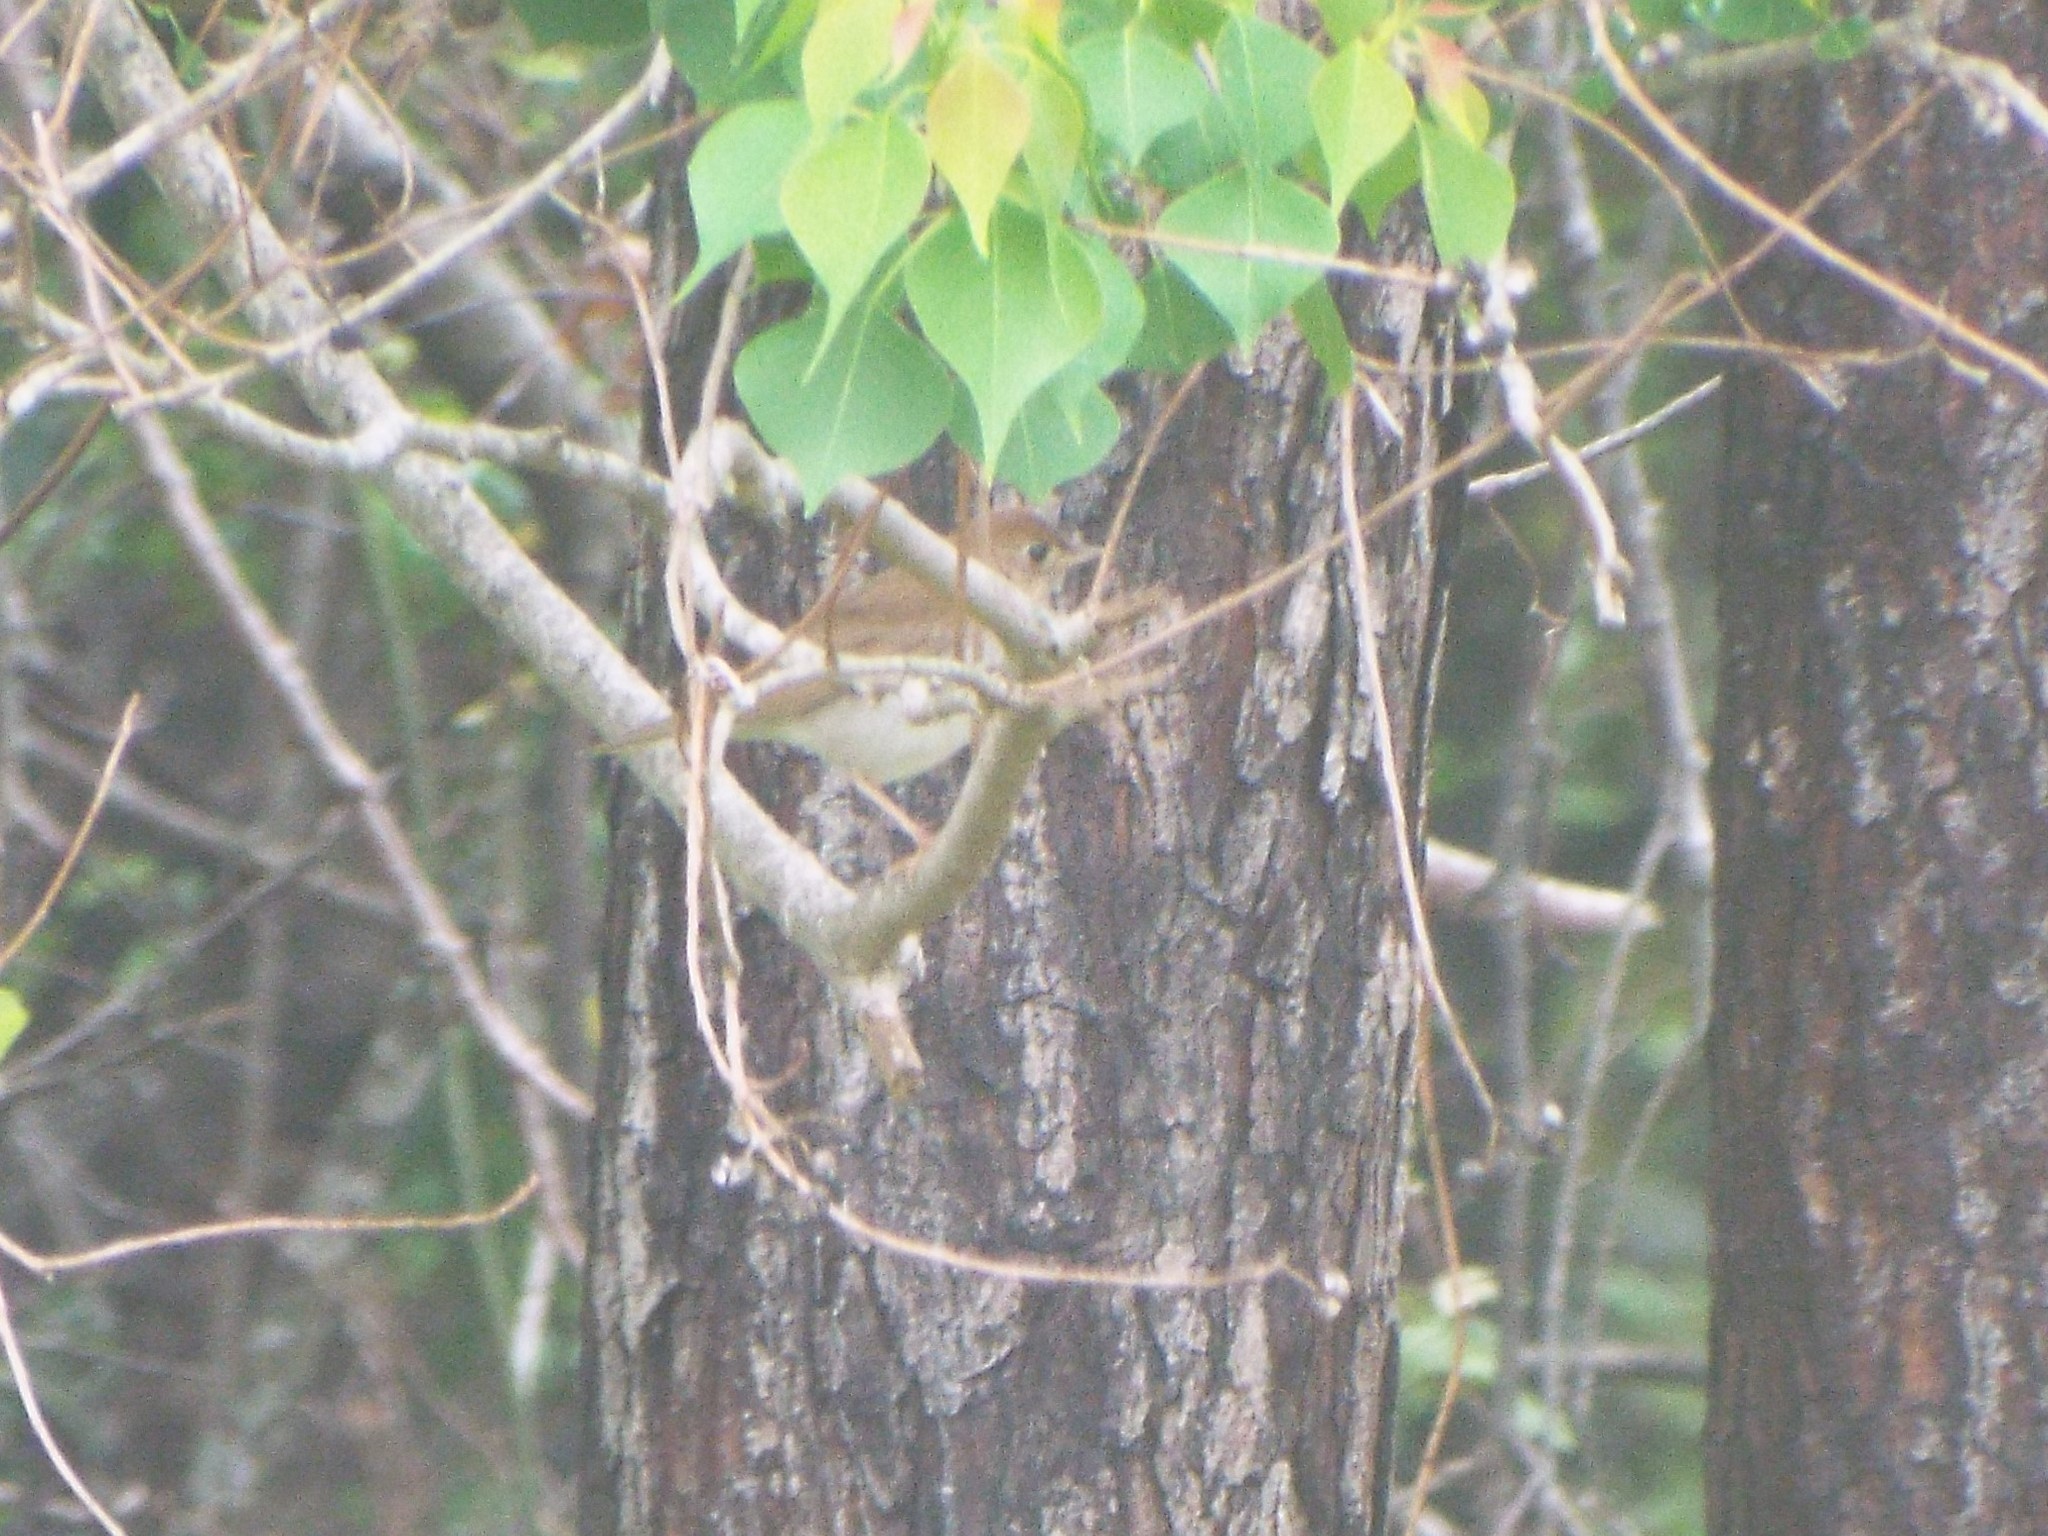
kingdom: Animalia
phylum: Chordata
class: Aves
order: Passeriformes
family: Turdidae
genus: Catharus
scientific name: Catharus fuscescens
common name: Veery
